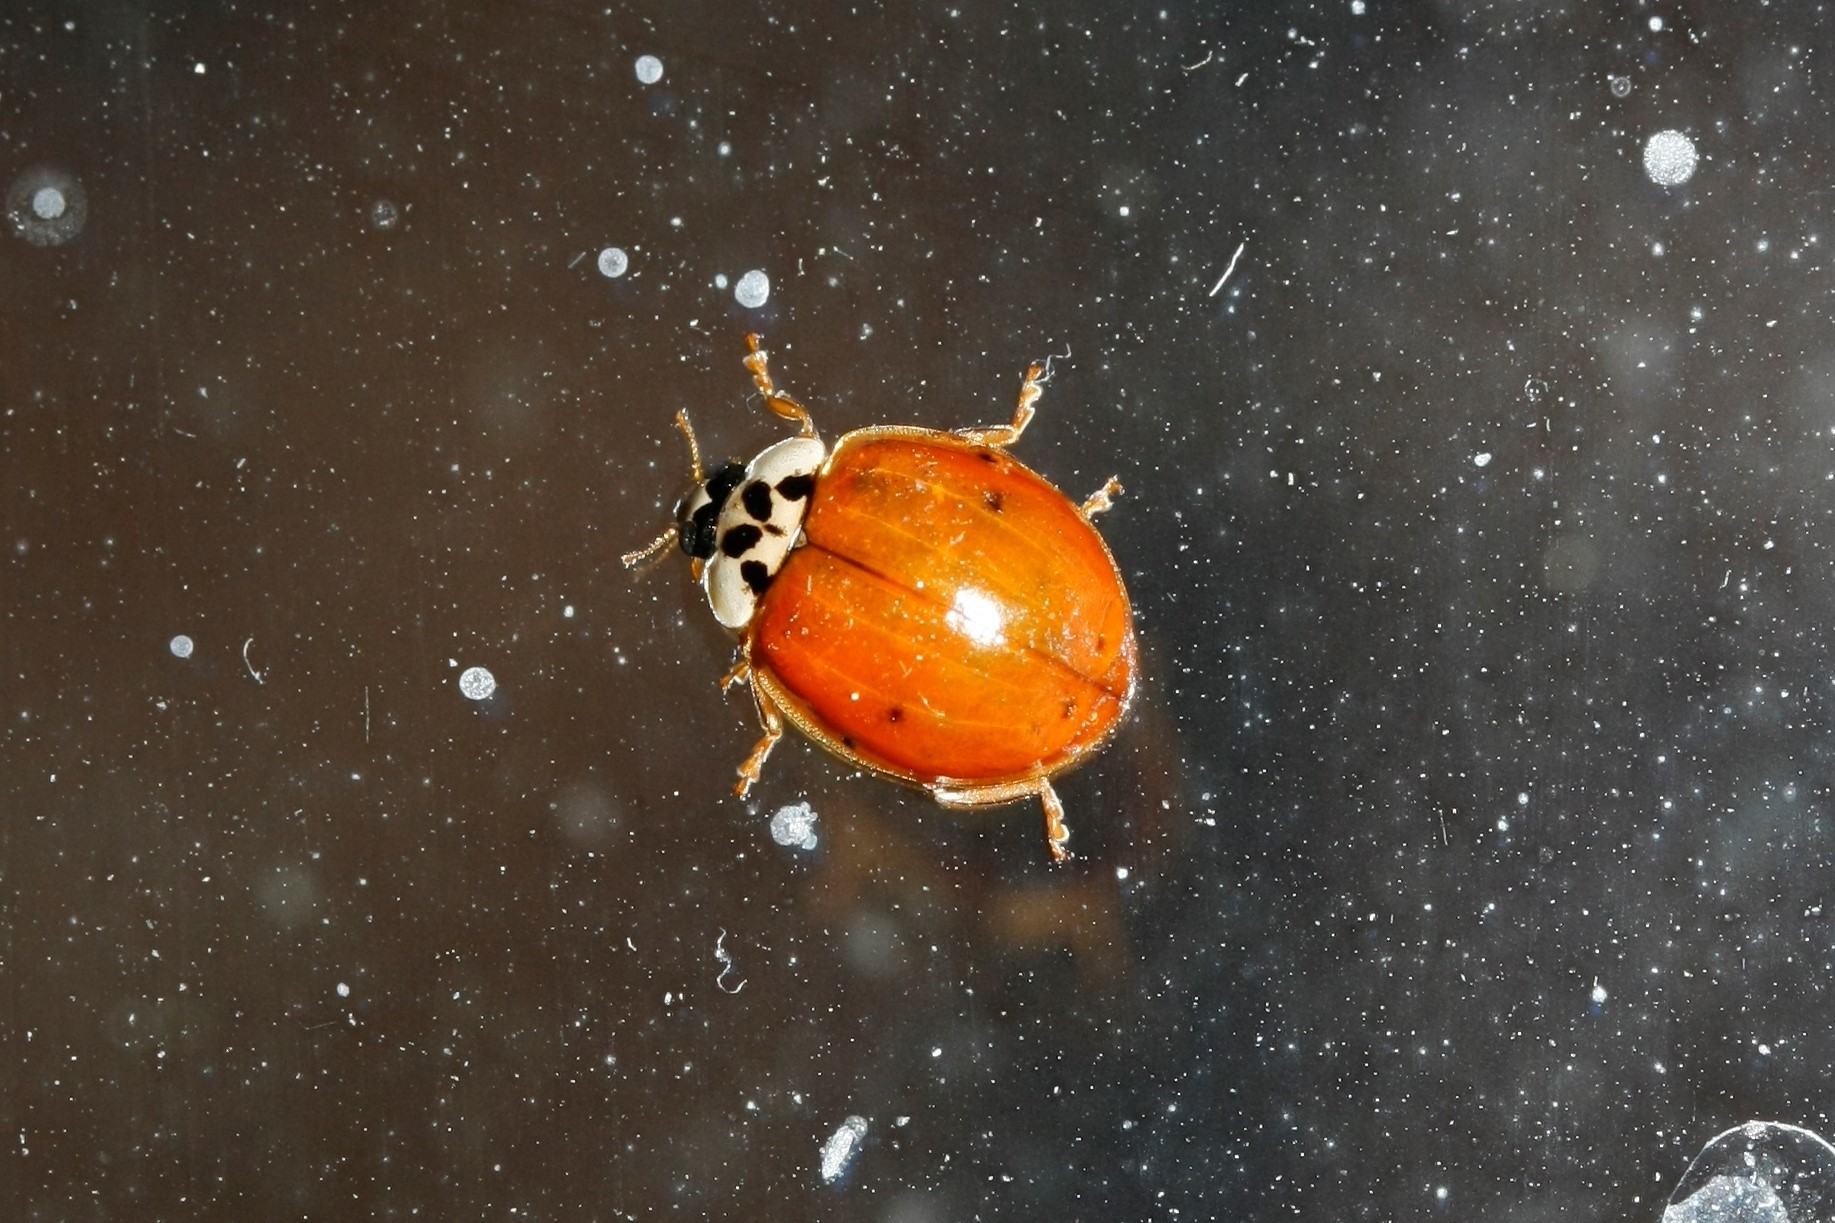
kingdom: Animalia
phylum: Arthropoda
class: Insecta
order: Coleoptera
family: Coccinellidae
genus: Harmonia
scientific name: Harmonia axyridis
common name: Harlequin ladybird
